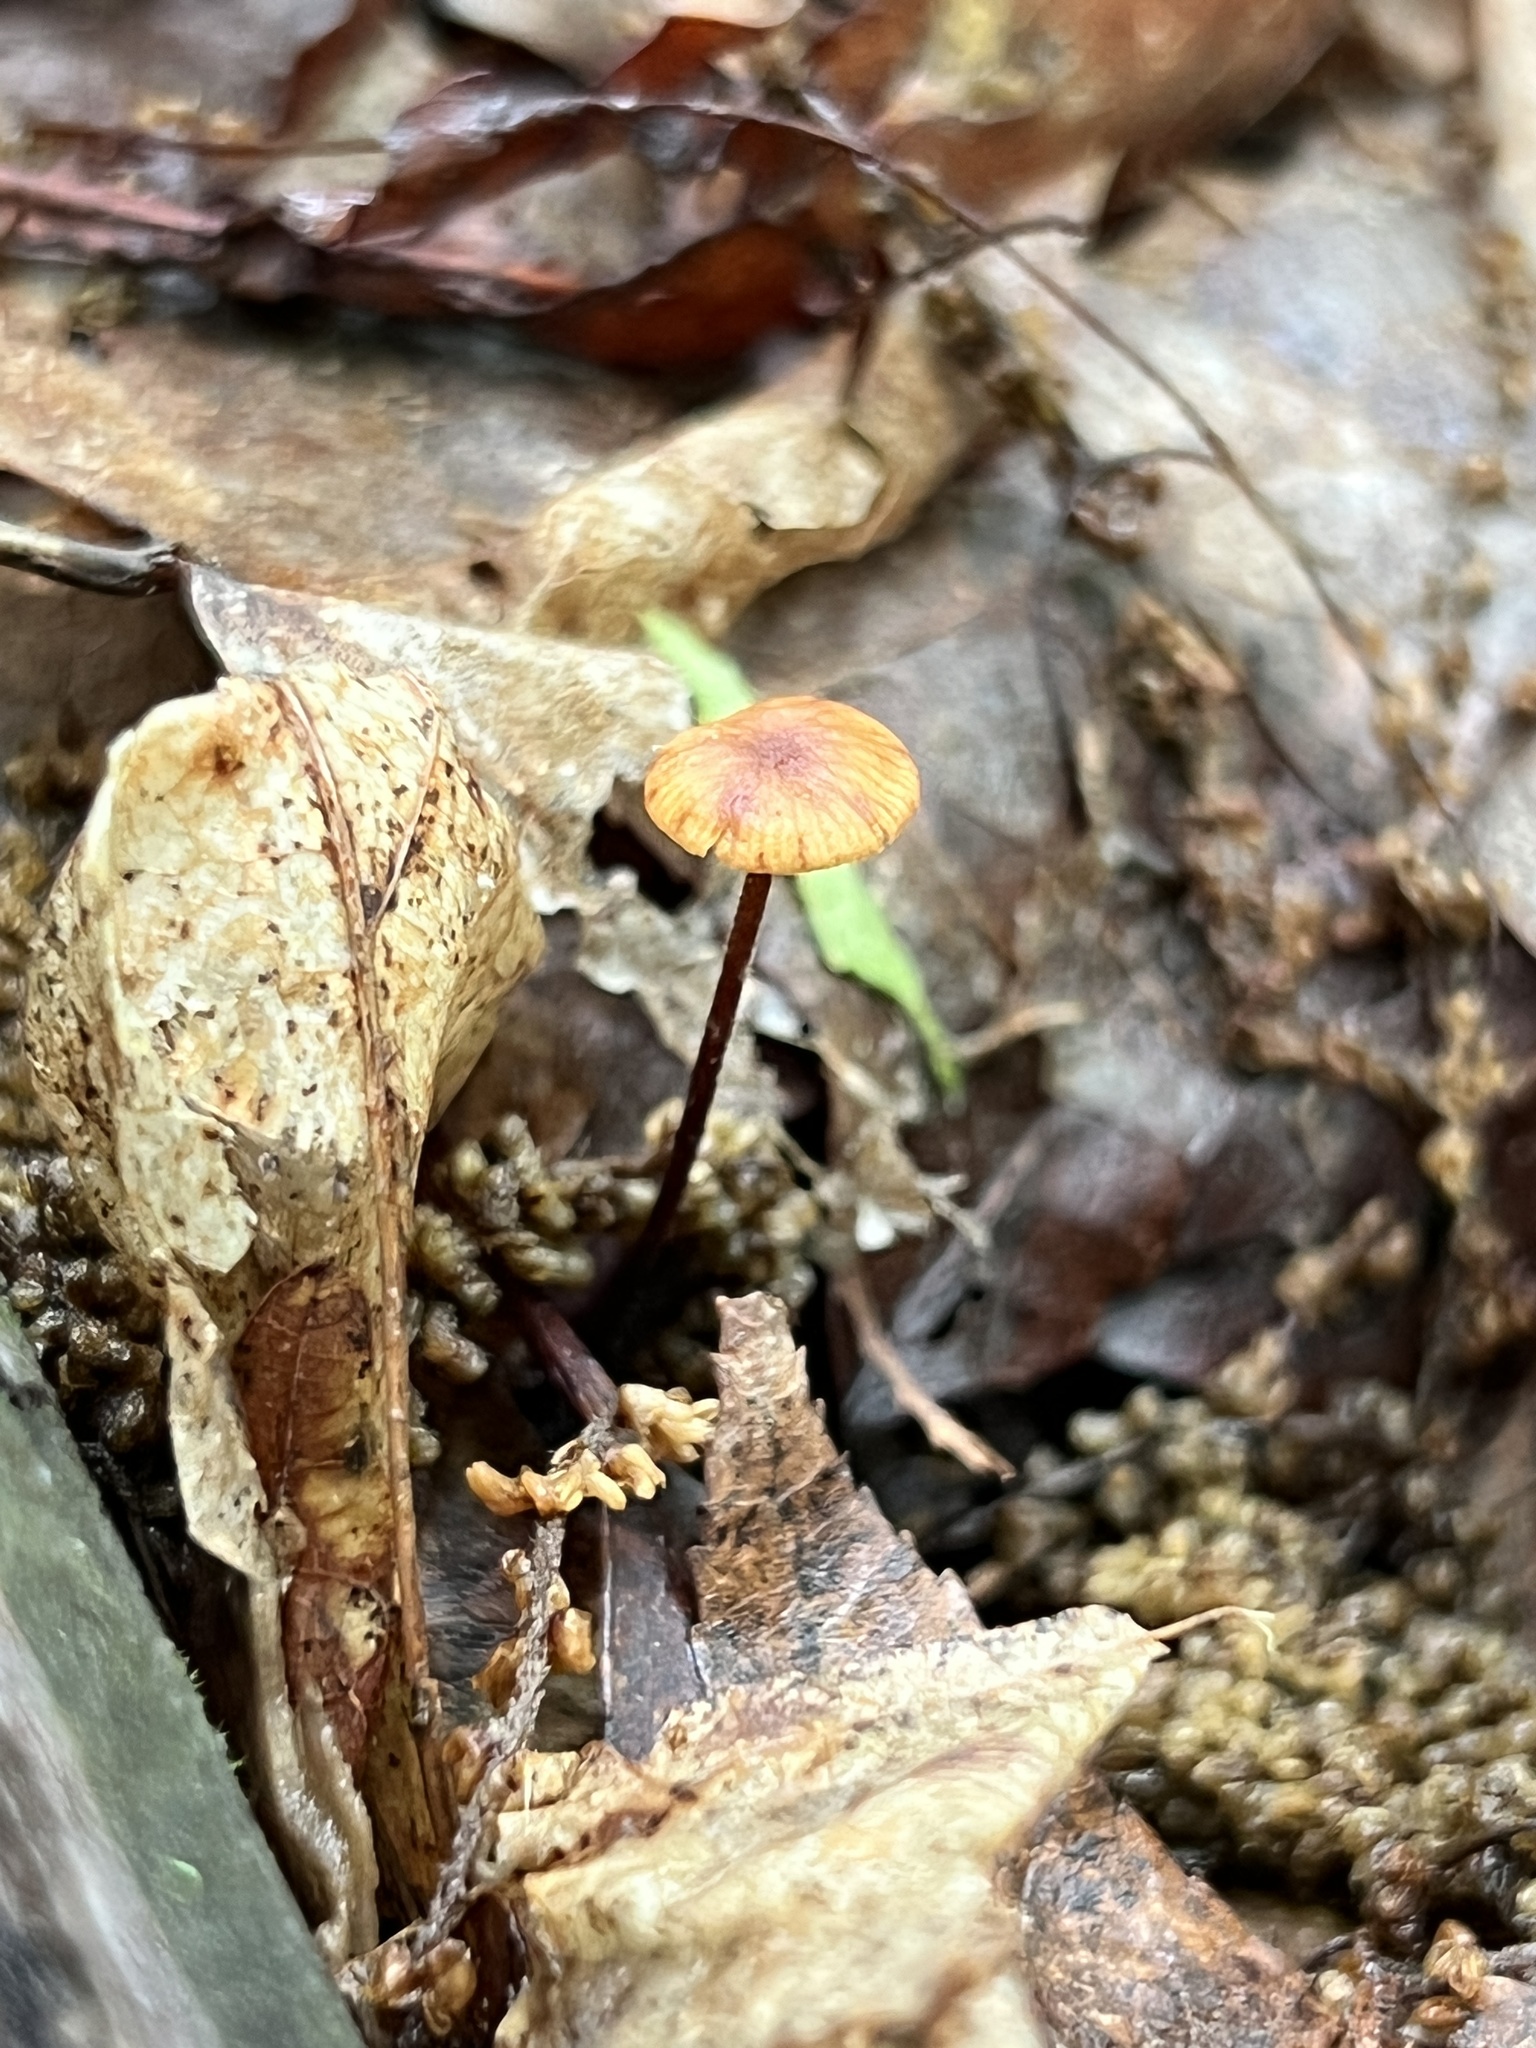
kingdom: Fungi
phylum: Basidiomycota
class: Agaricomycetes
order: Agaricales
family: Physalacriaceae
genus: Rhizomarasmius
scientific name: Rhizomarasmius pyrrhocephalus
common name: Hairy long stem marasmius
